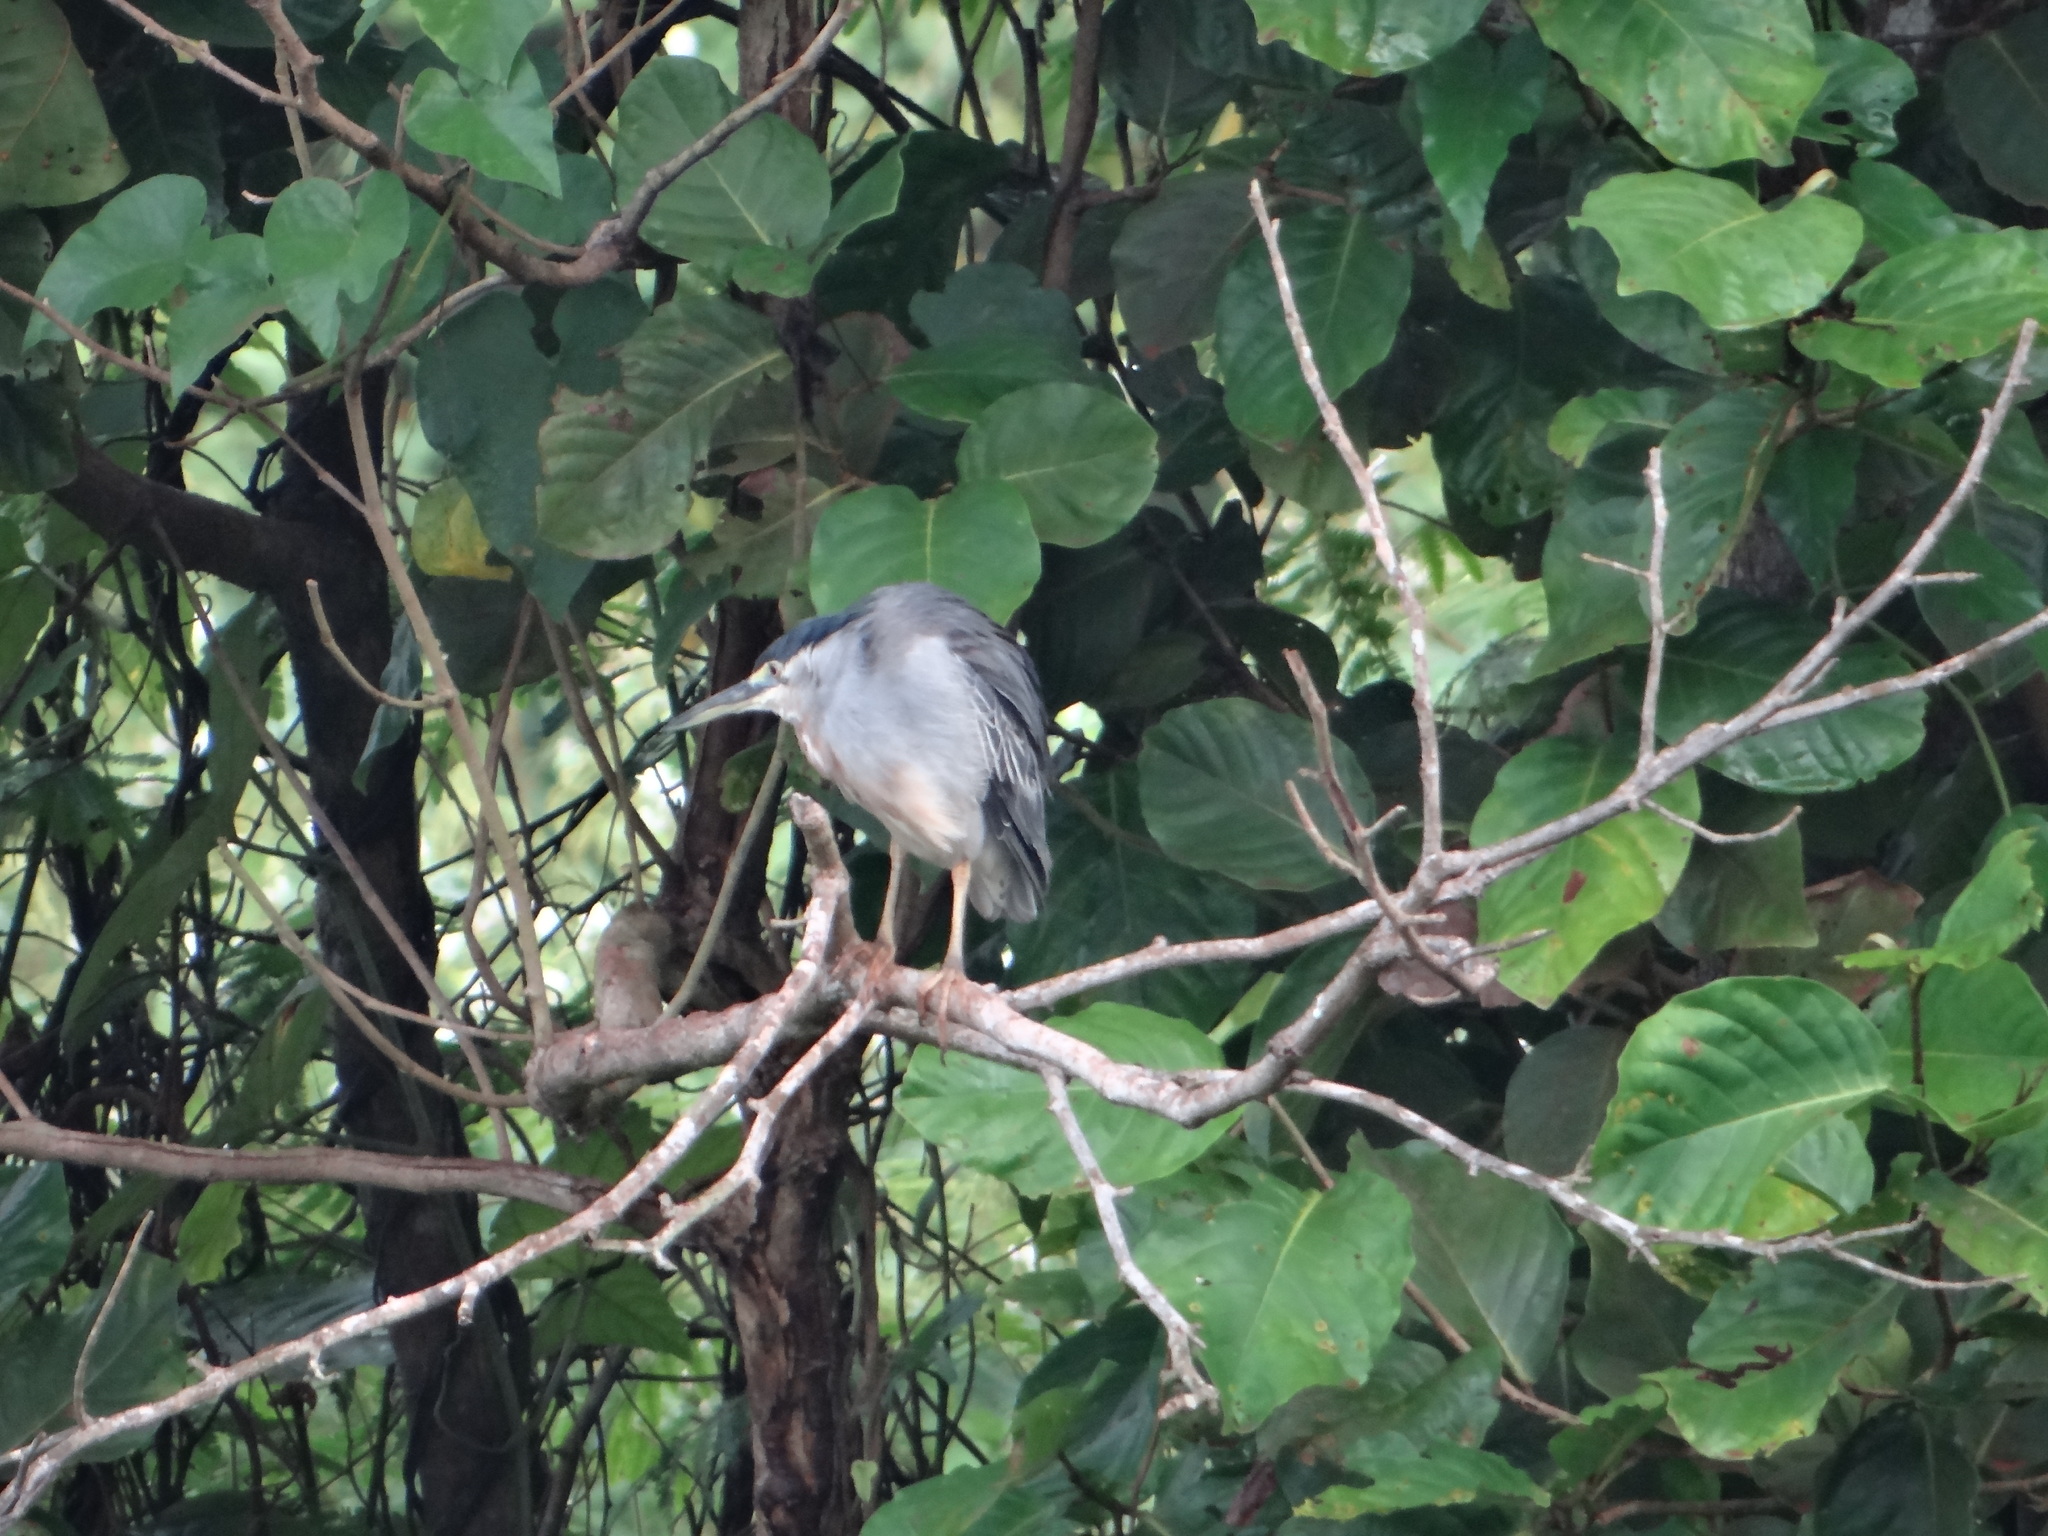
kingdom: Animalia
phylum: Chordata
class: Aves
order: Pelecaniformes
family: Ardeidae
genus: Butorides
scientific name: Butorides striata
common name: Striated heron
